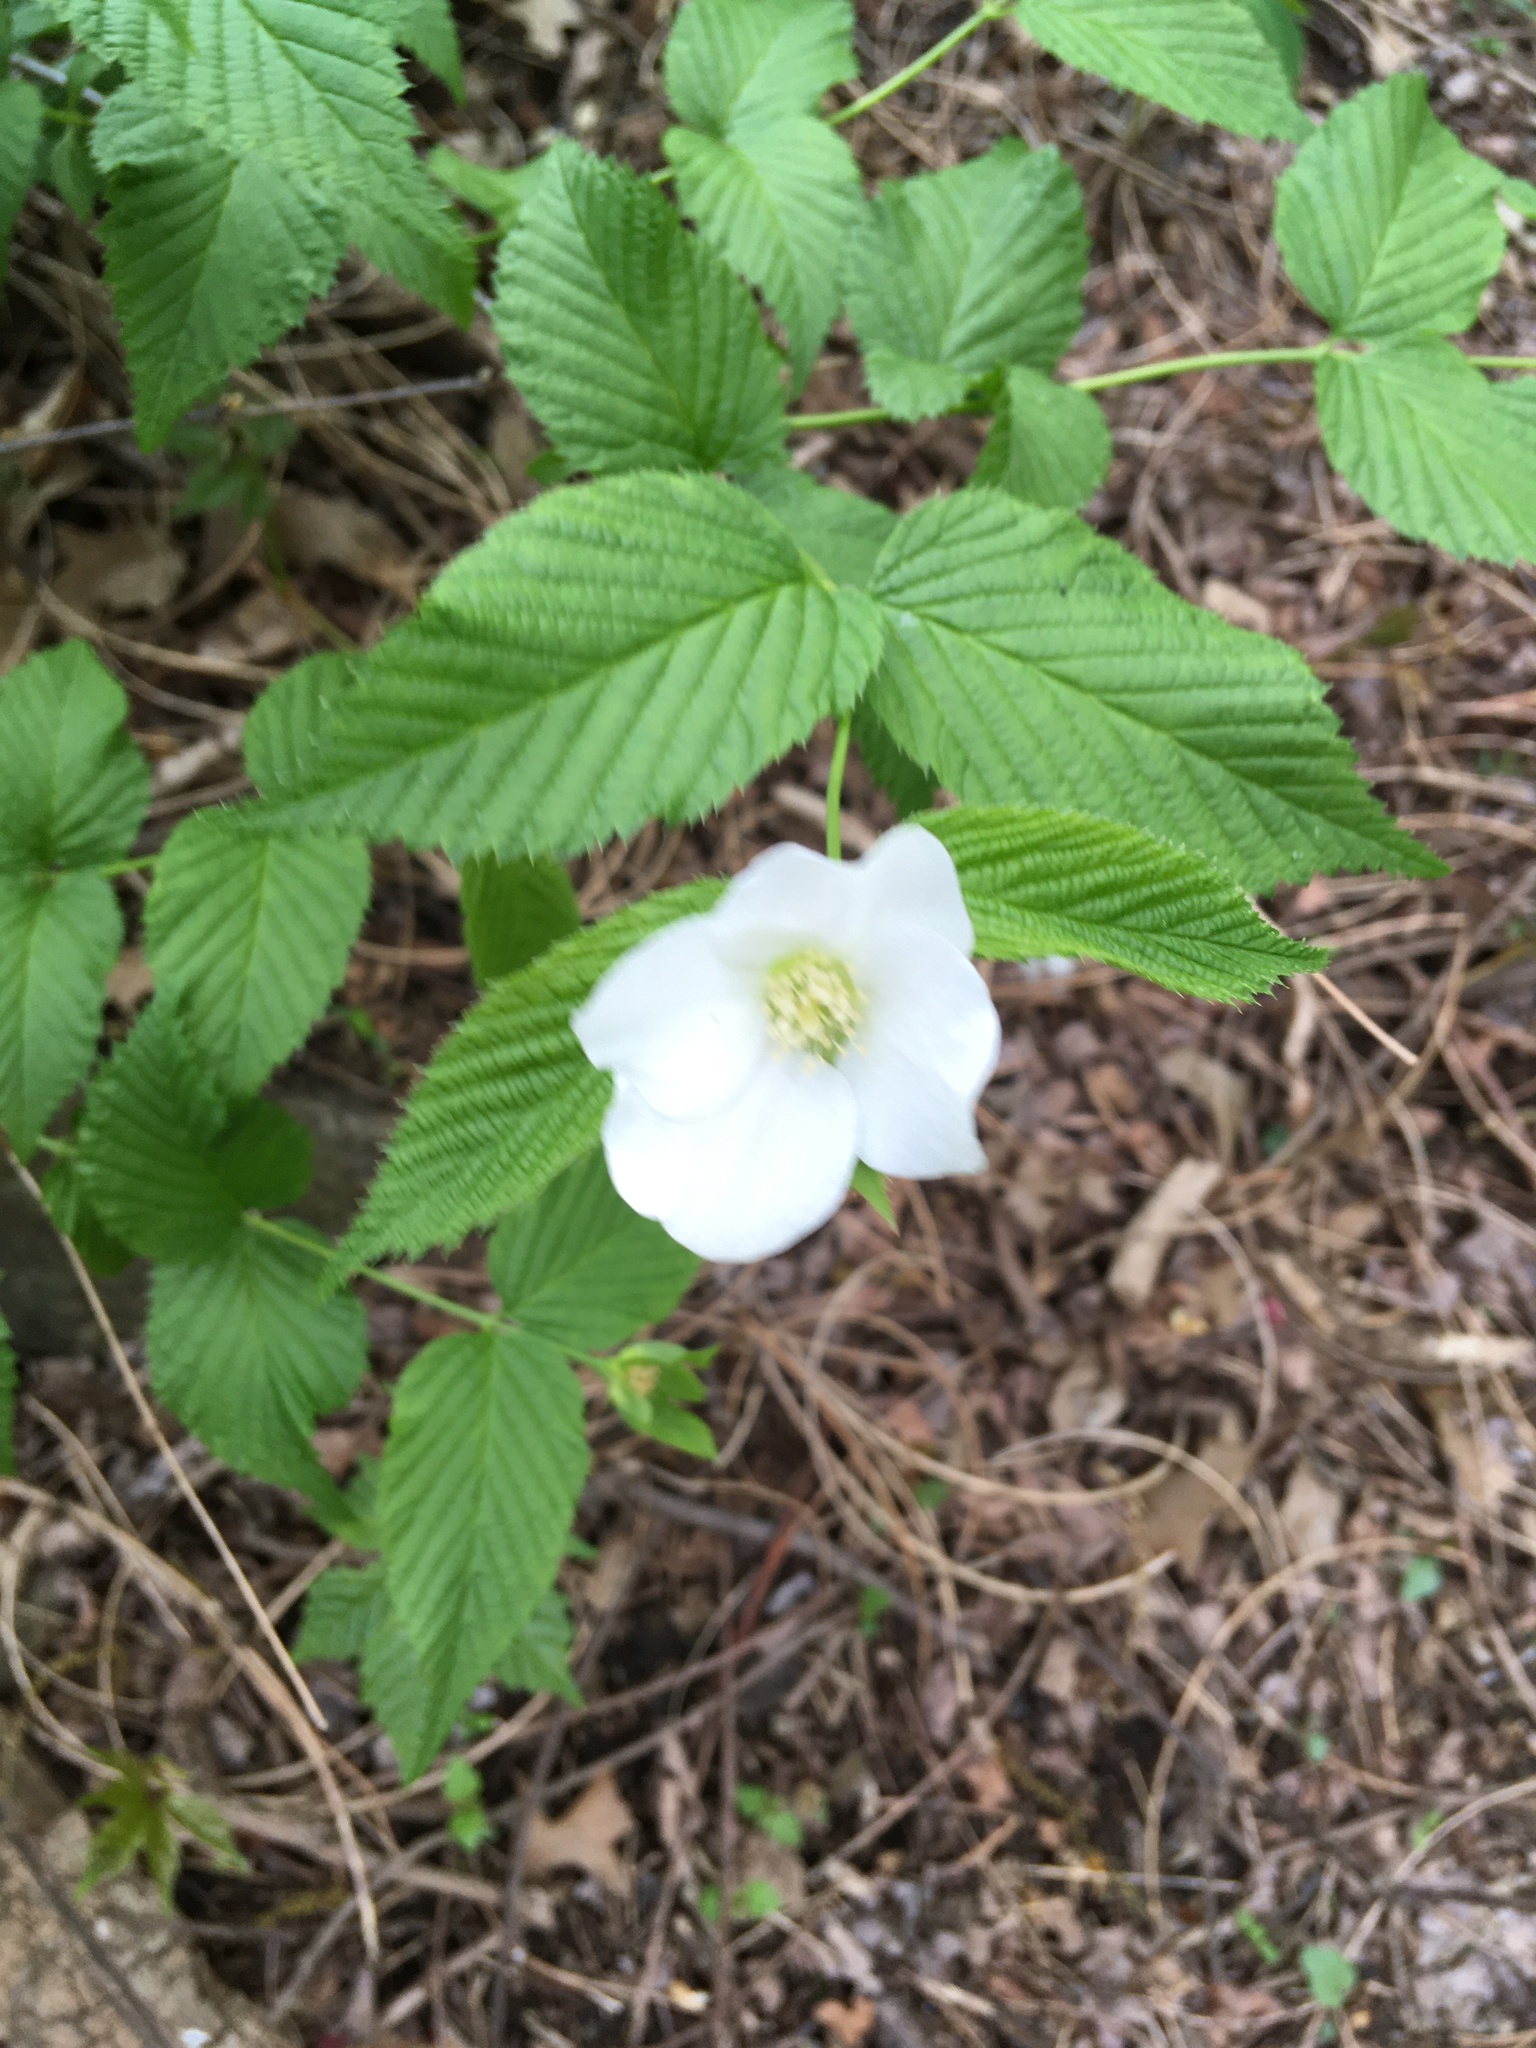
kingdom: Plantae
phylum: Tracheophyta
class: Magnoliopsida
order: Rosales
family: Rosaceae
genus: Rhodotypos
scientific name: Rhodotypos scandens
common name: Jetbead
